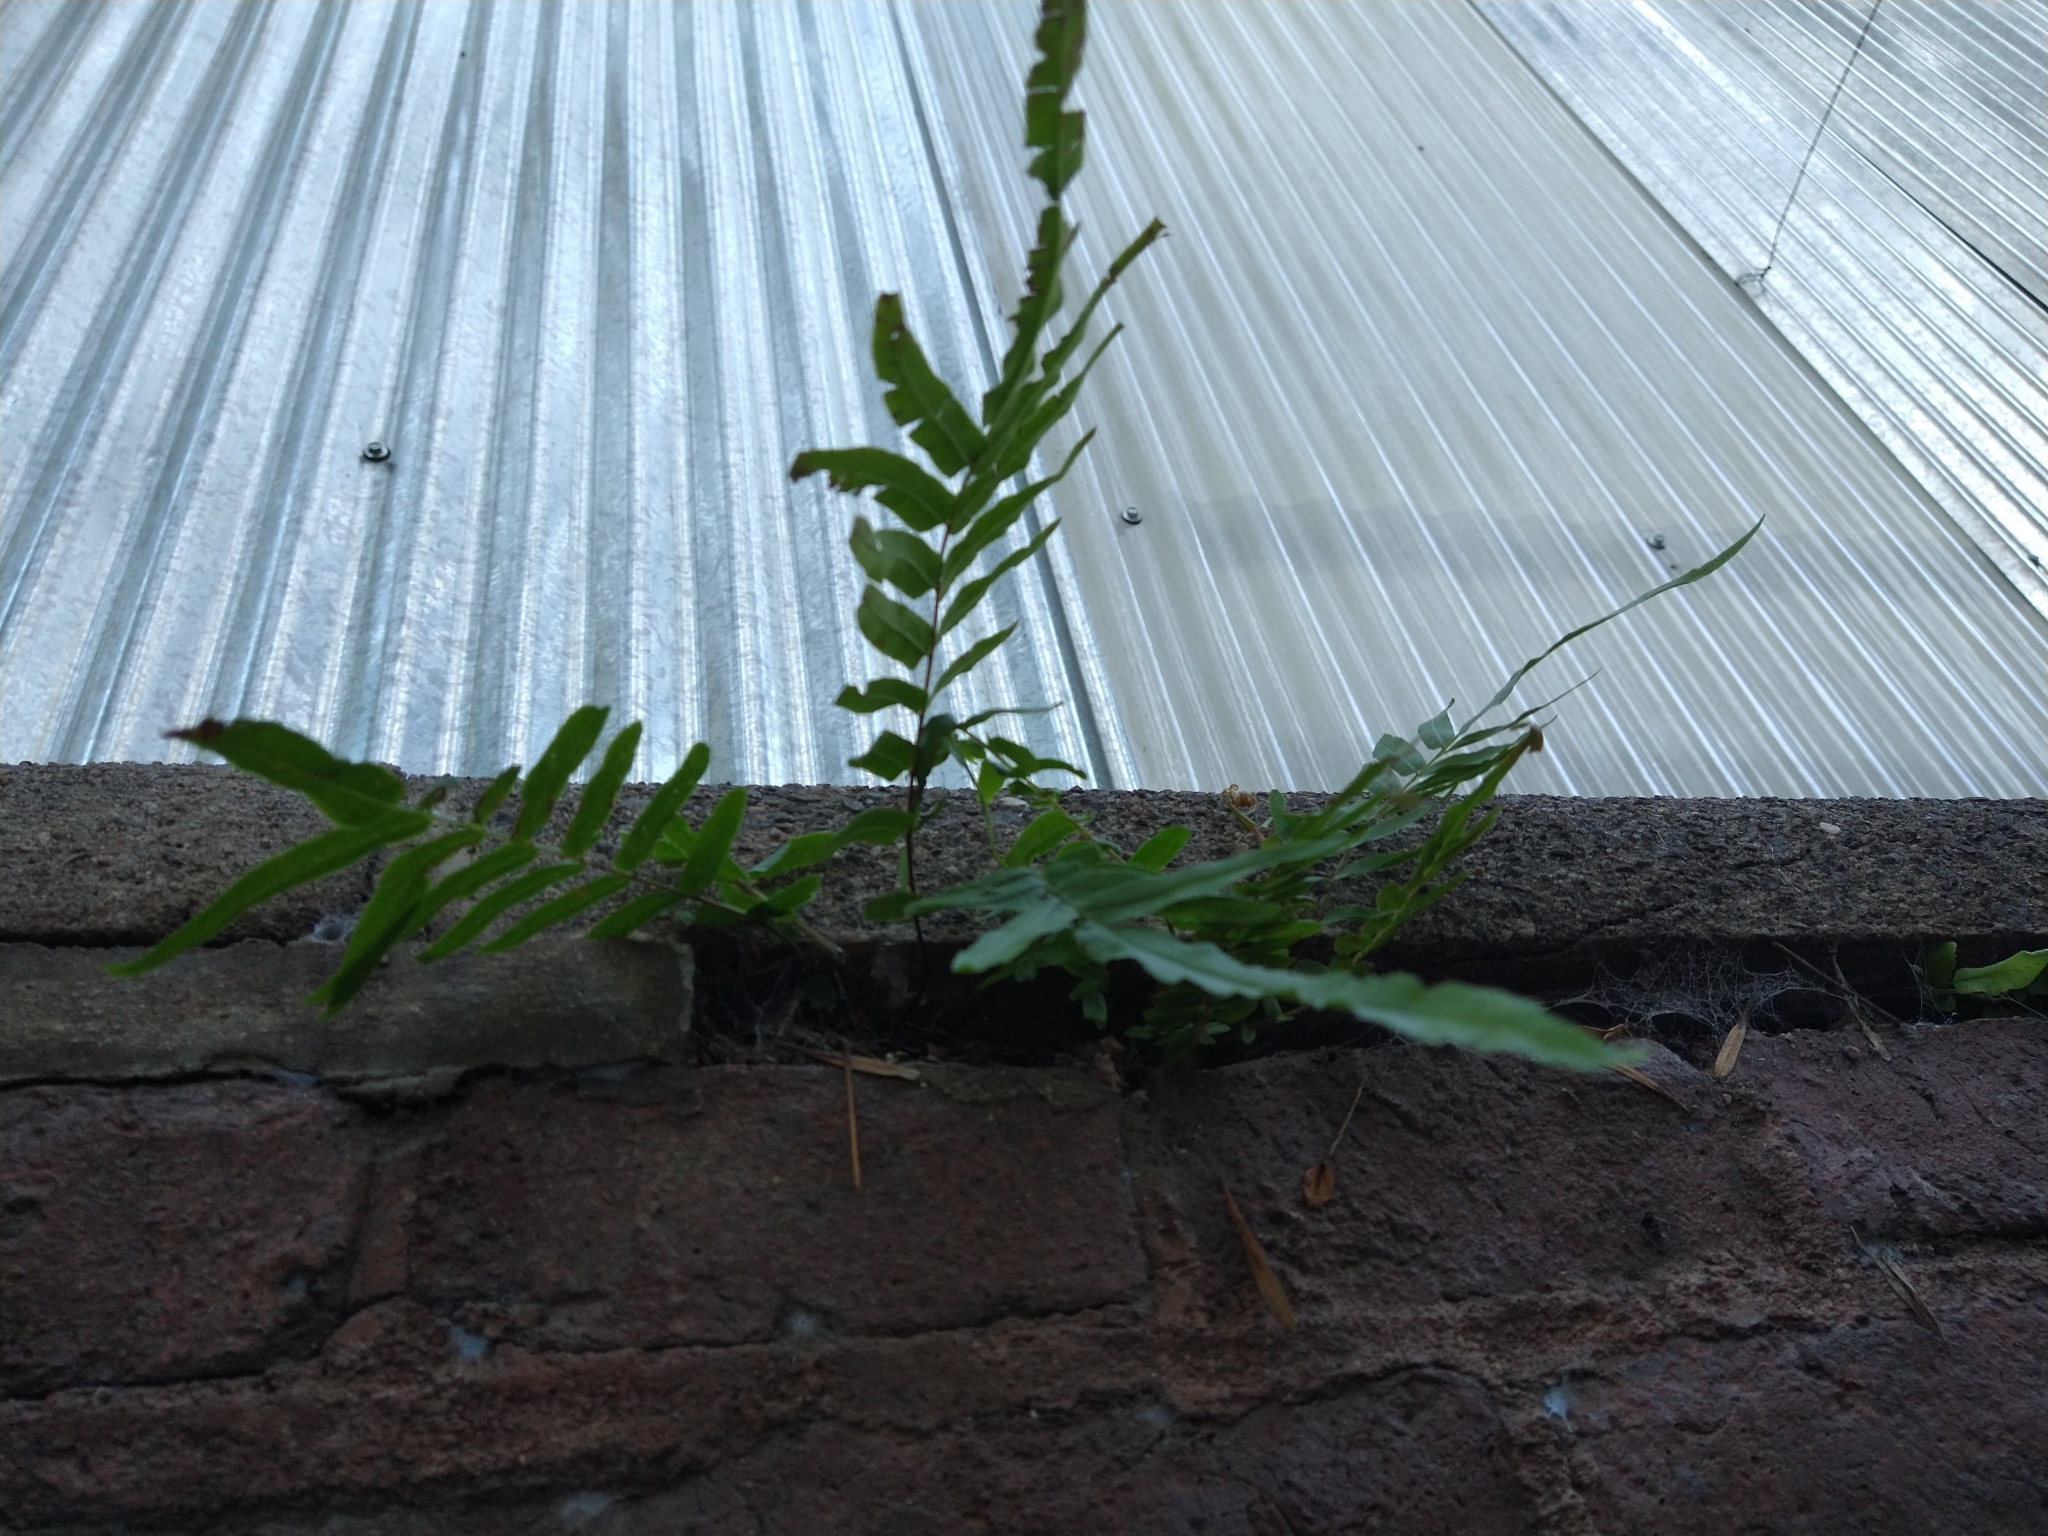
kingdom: Plantae
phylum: Tracheophyta
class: Polypodiopsida
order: Polypodiales
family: Pteridaceae
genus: Pteris
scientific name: Pteris vittata
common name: Ladder brake
